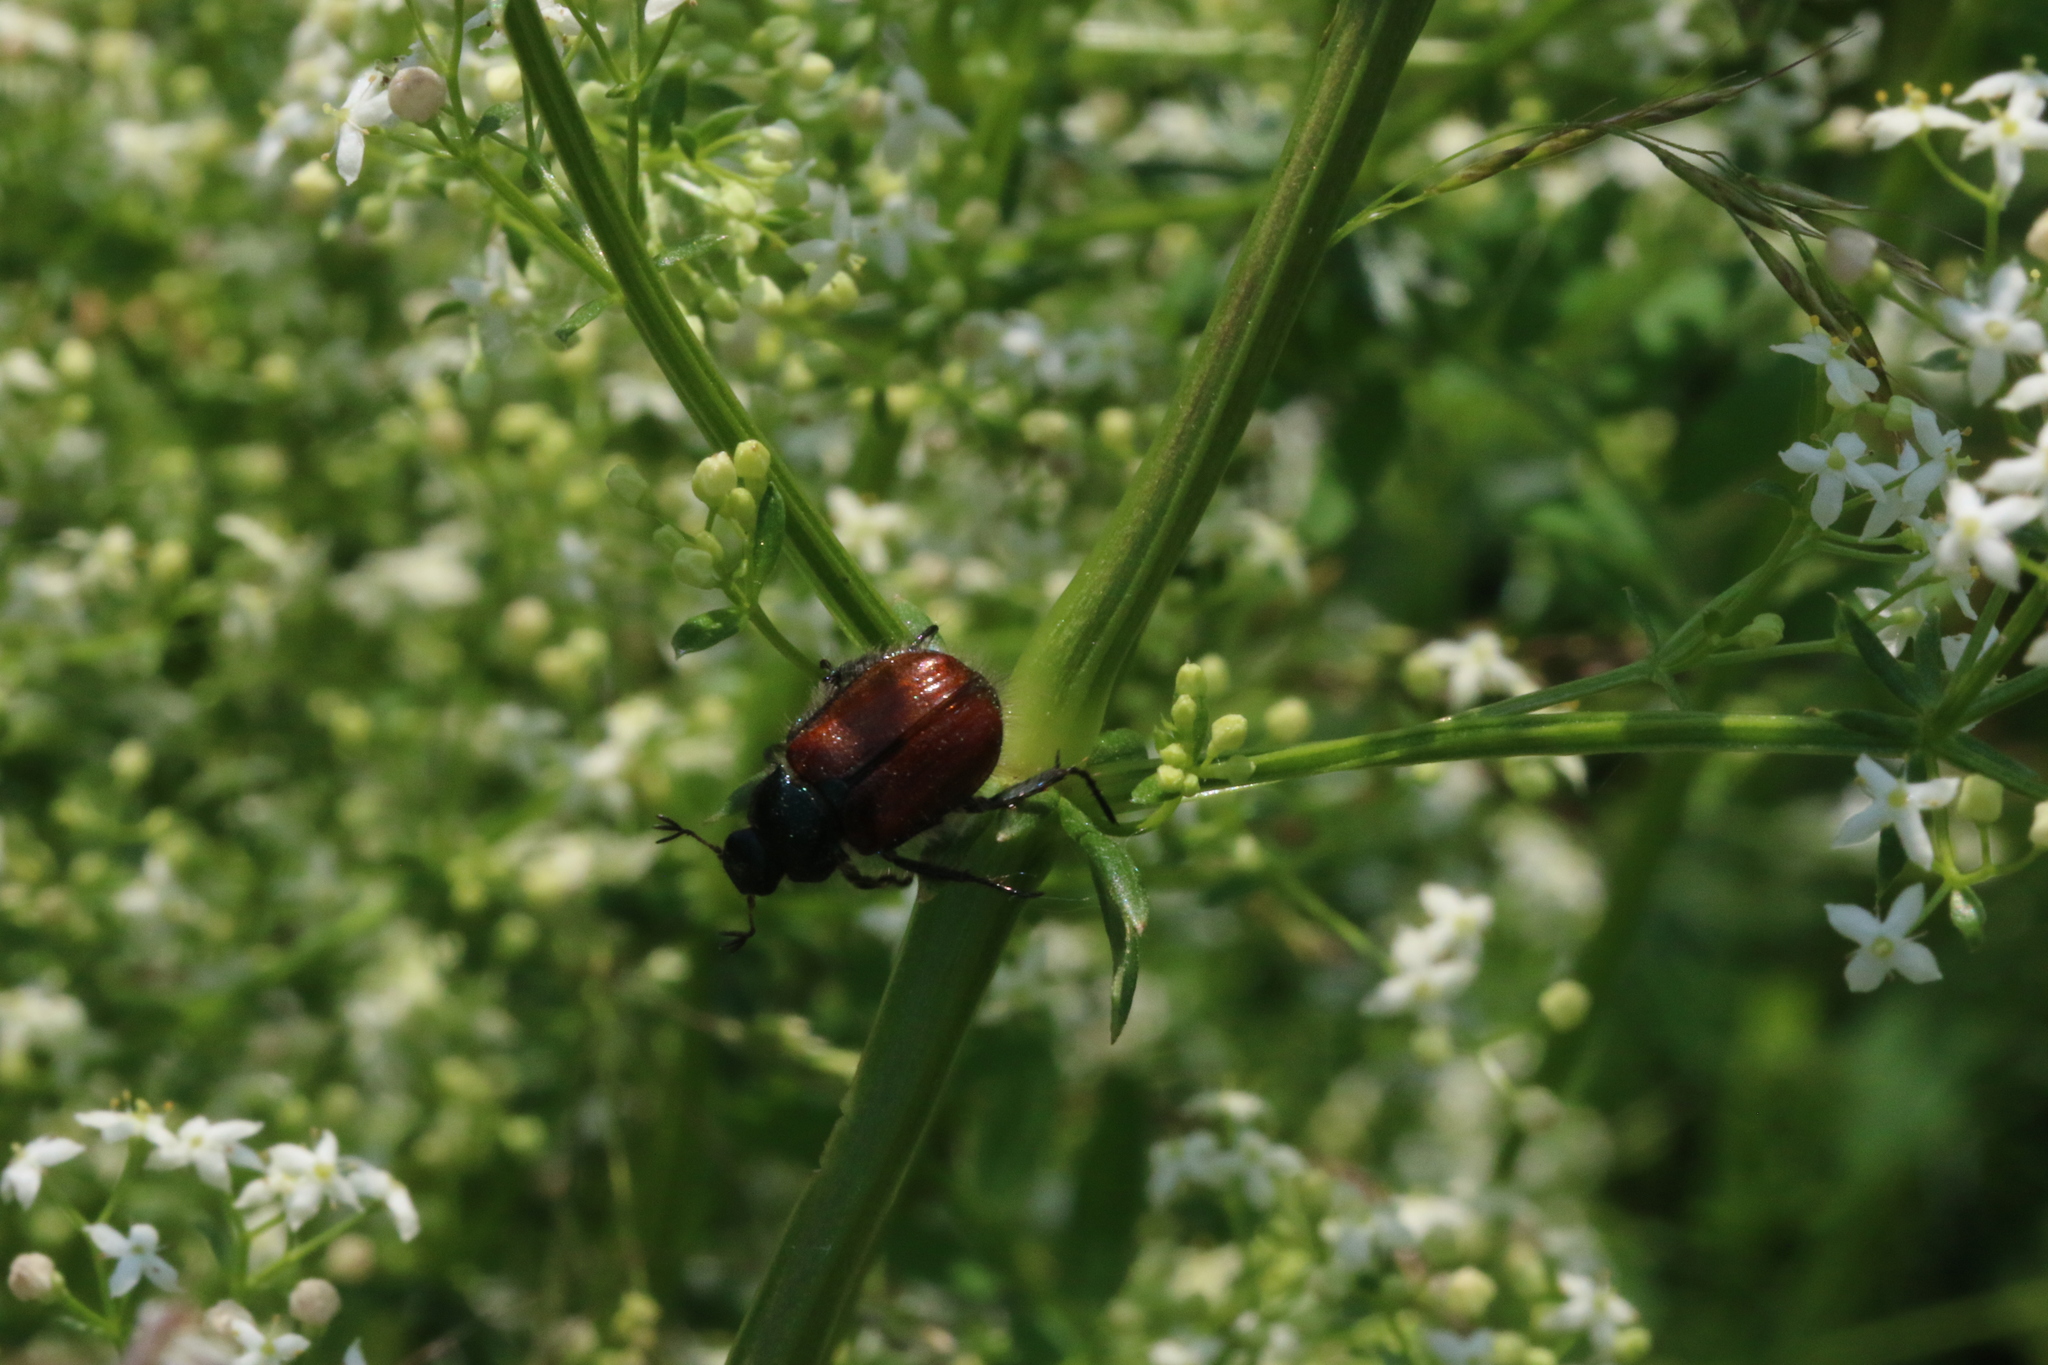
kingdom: Animalia
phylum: Arthropoda
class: Insecta
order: Coleoptera
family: Scarabaeidae
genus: Phyllopertha
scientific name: Phyllopertha horticola
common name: Garden chafer
